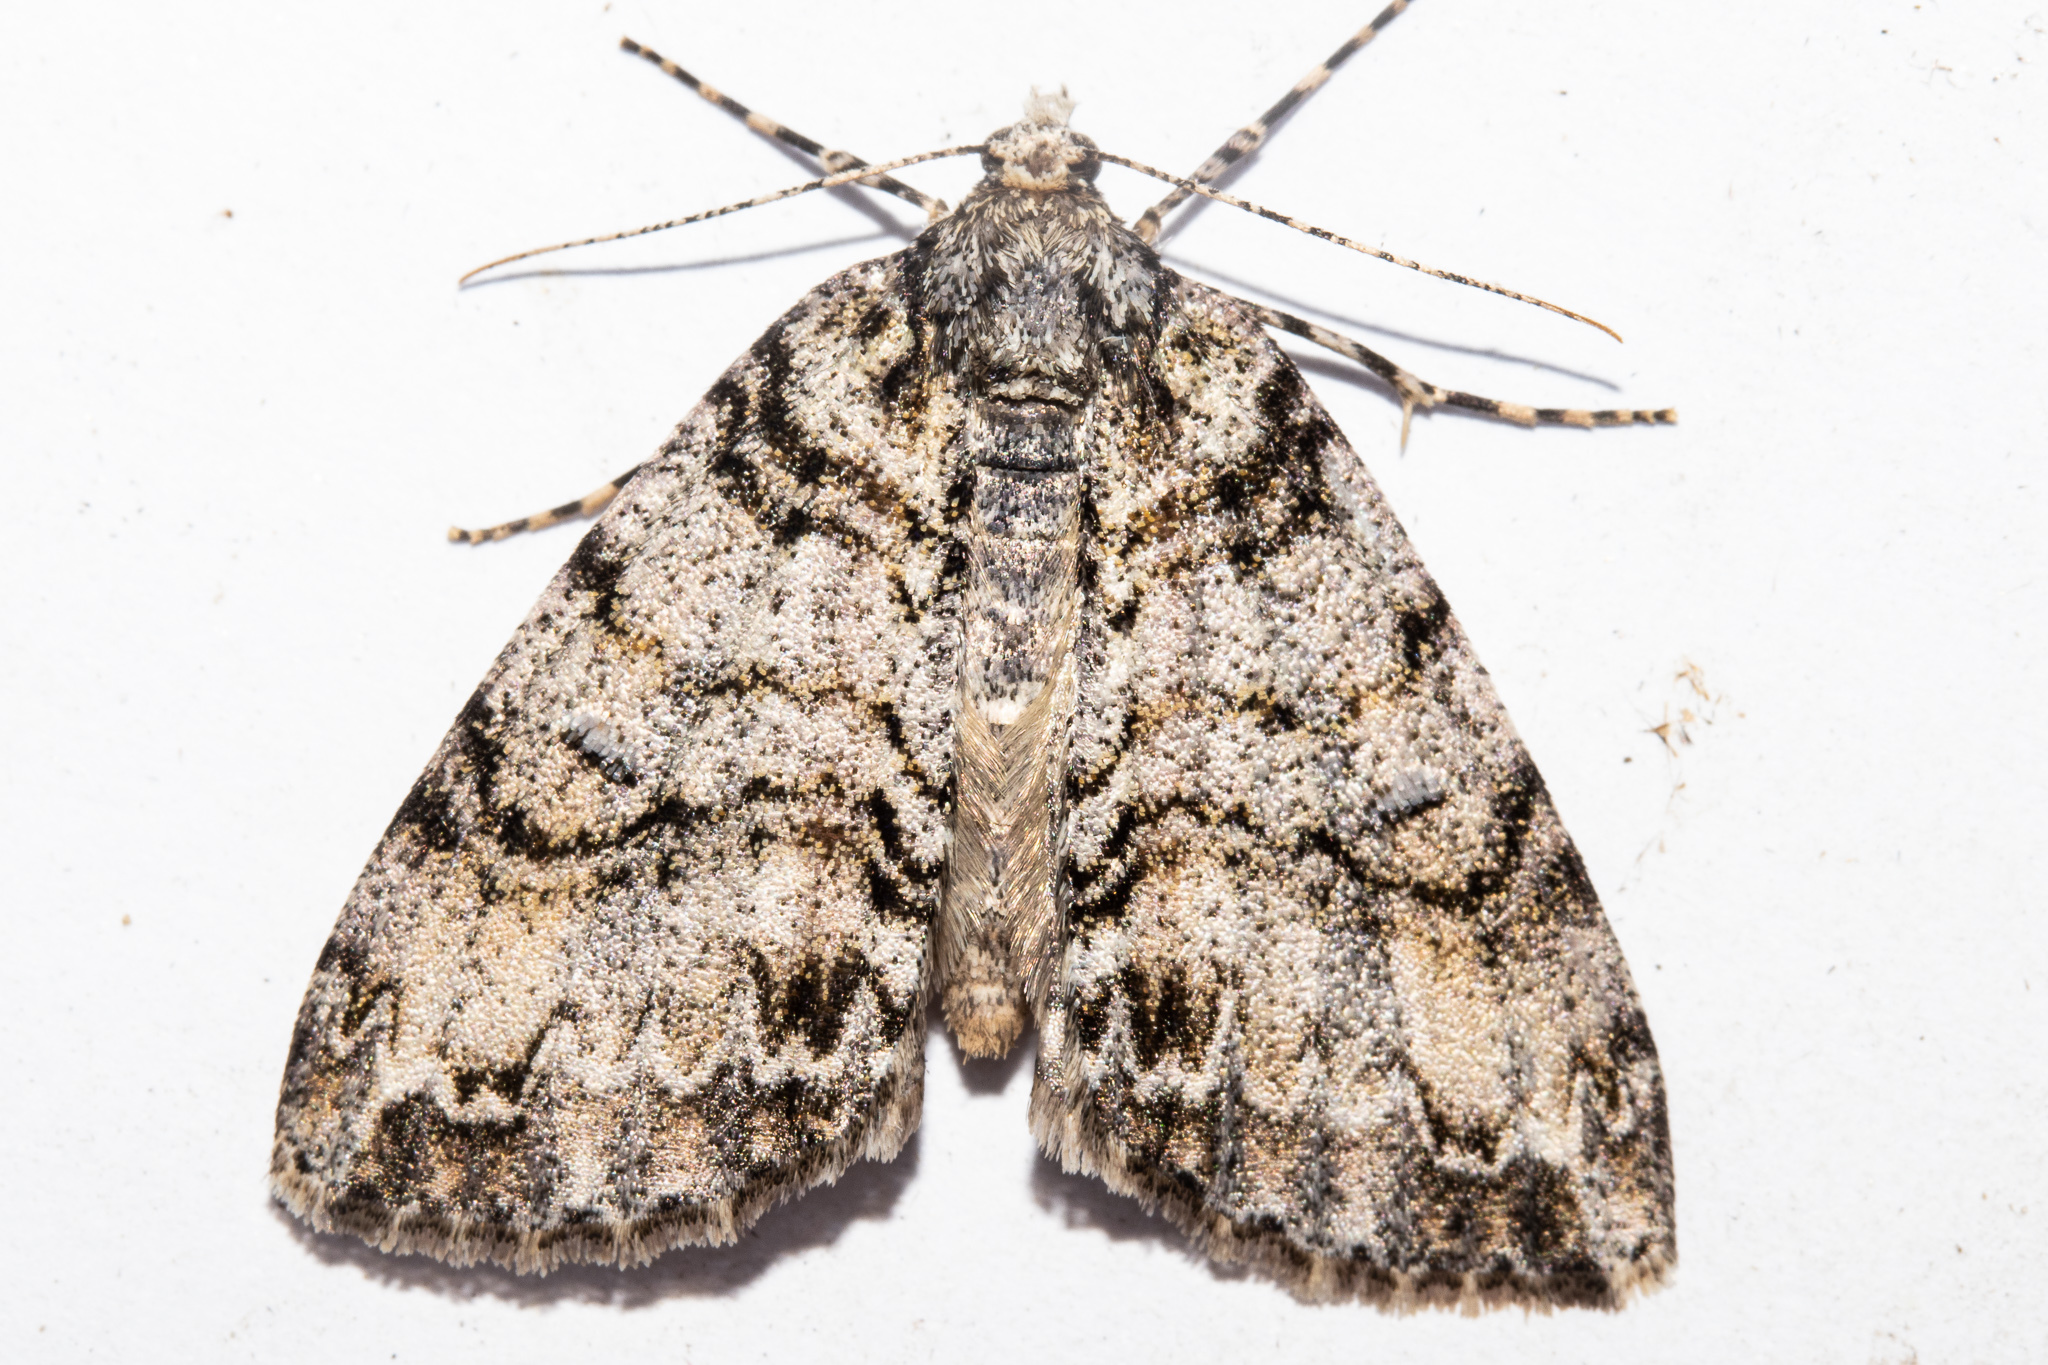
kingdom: Animalia
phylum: Arthropoda
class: Insecta
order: Lepidoptera
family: Geometridae
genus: Pseudocoremia
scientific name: Pseudocoremia suavis
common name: Common forest looper
